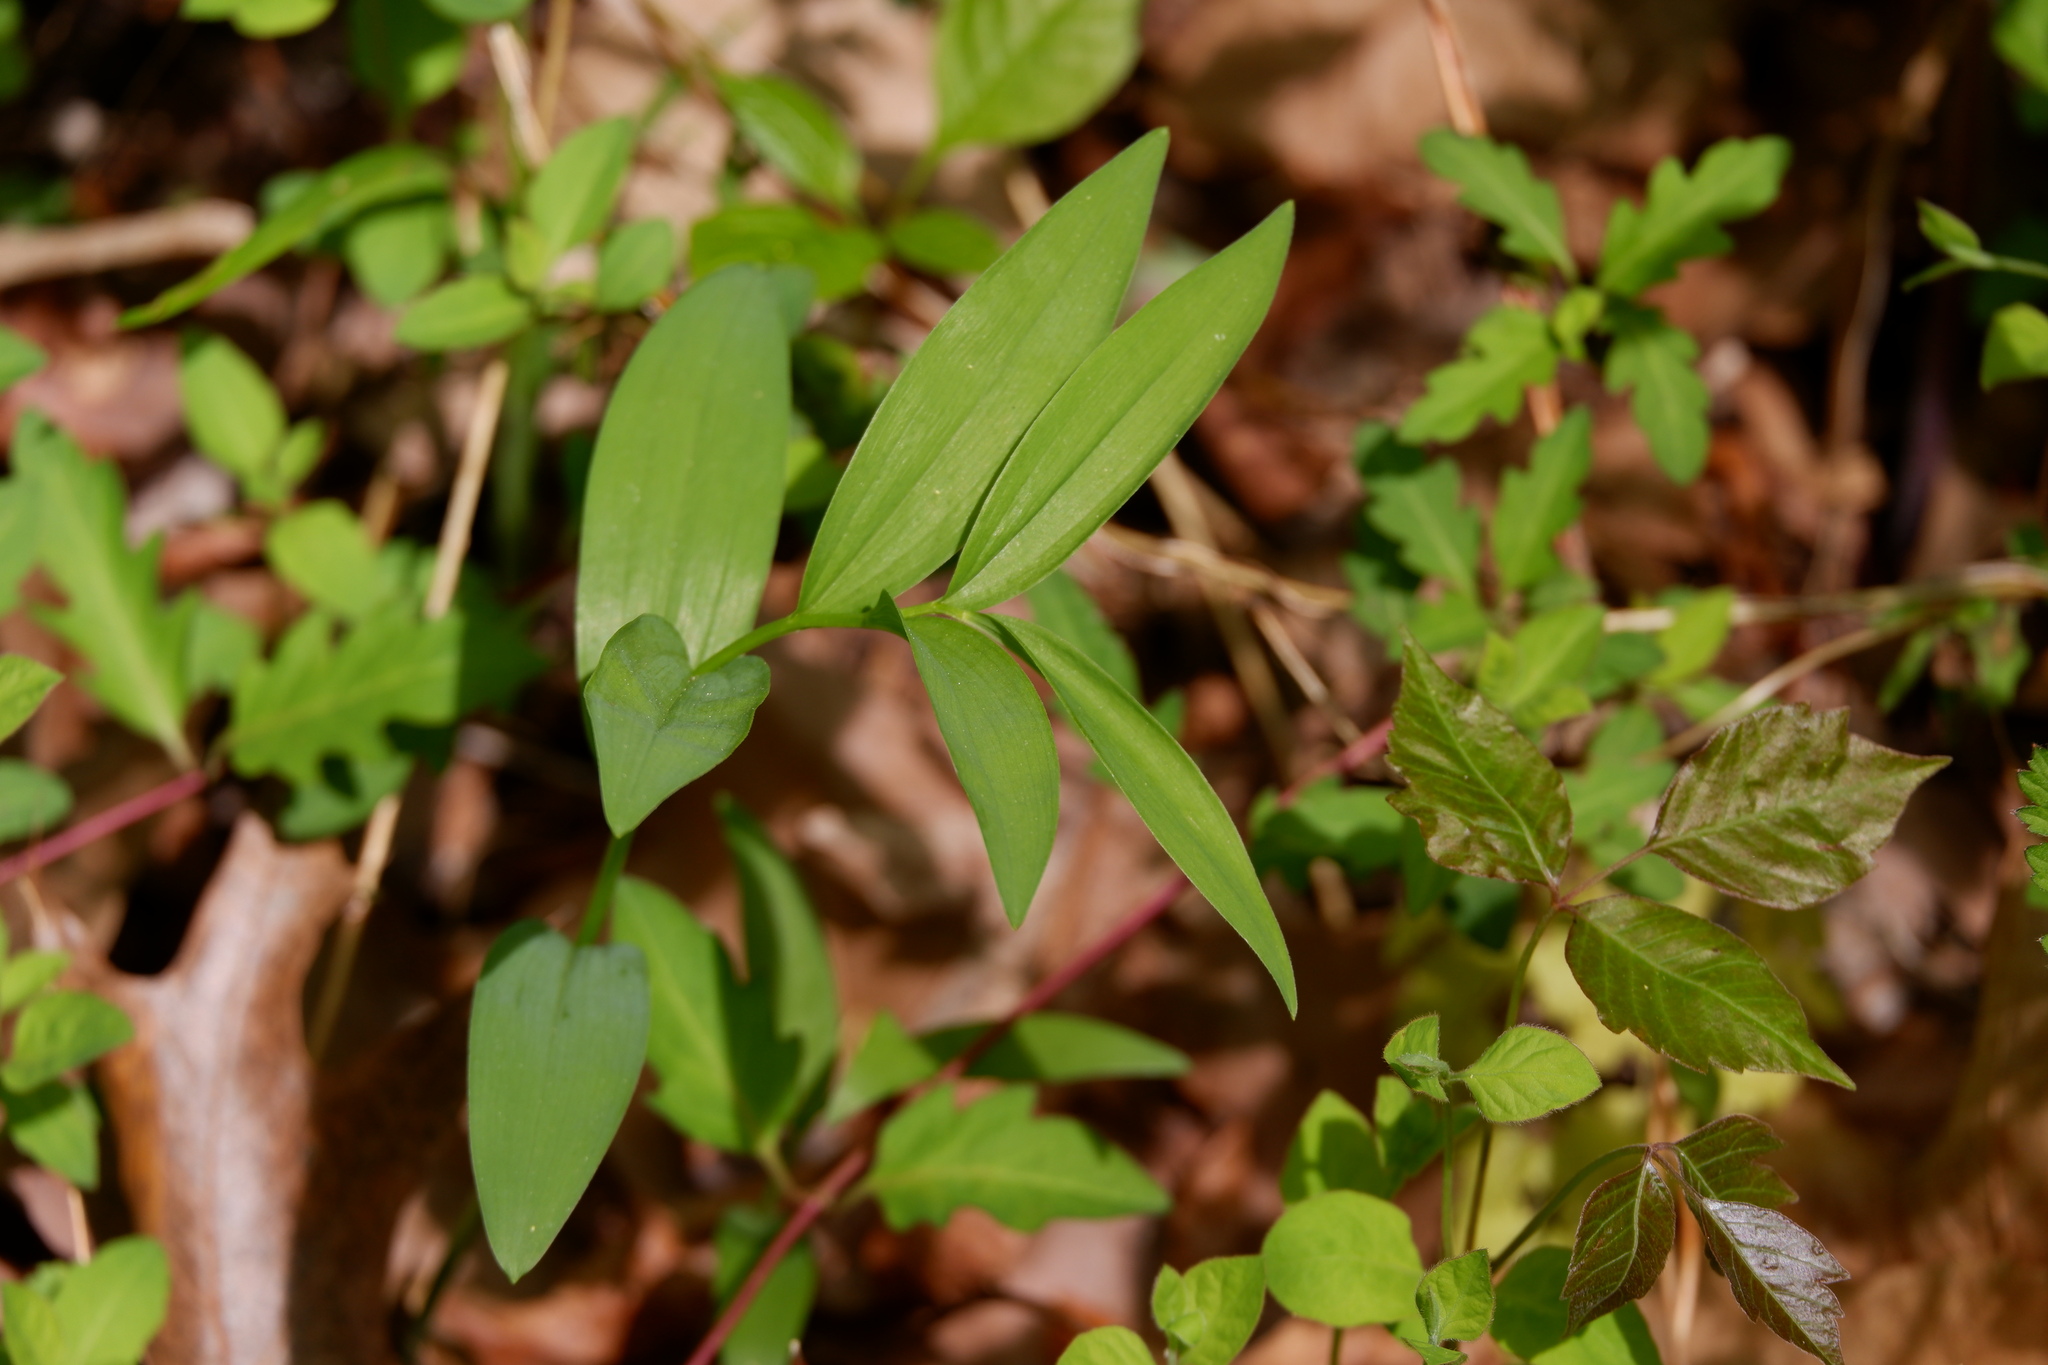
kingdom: Plantae
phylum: Tracheophyta
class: Liliopsida
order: Asparagales
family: Asparagaceae
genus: Maianthemum
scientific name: Maianthemum stellatum
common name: Little false solomon's seal
